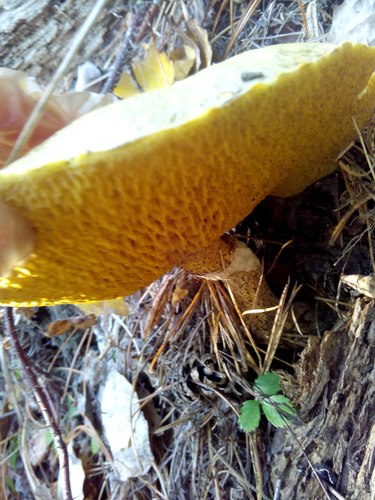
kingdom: Fungi
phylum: Basidiomycota
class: Agaricomycetes
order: Boletales
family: Suillaceae
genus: Suillus
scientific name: Suillus americanus
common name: Chicken fat mushroom
